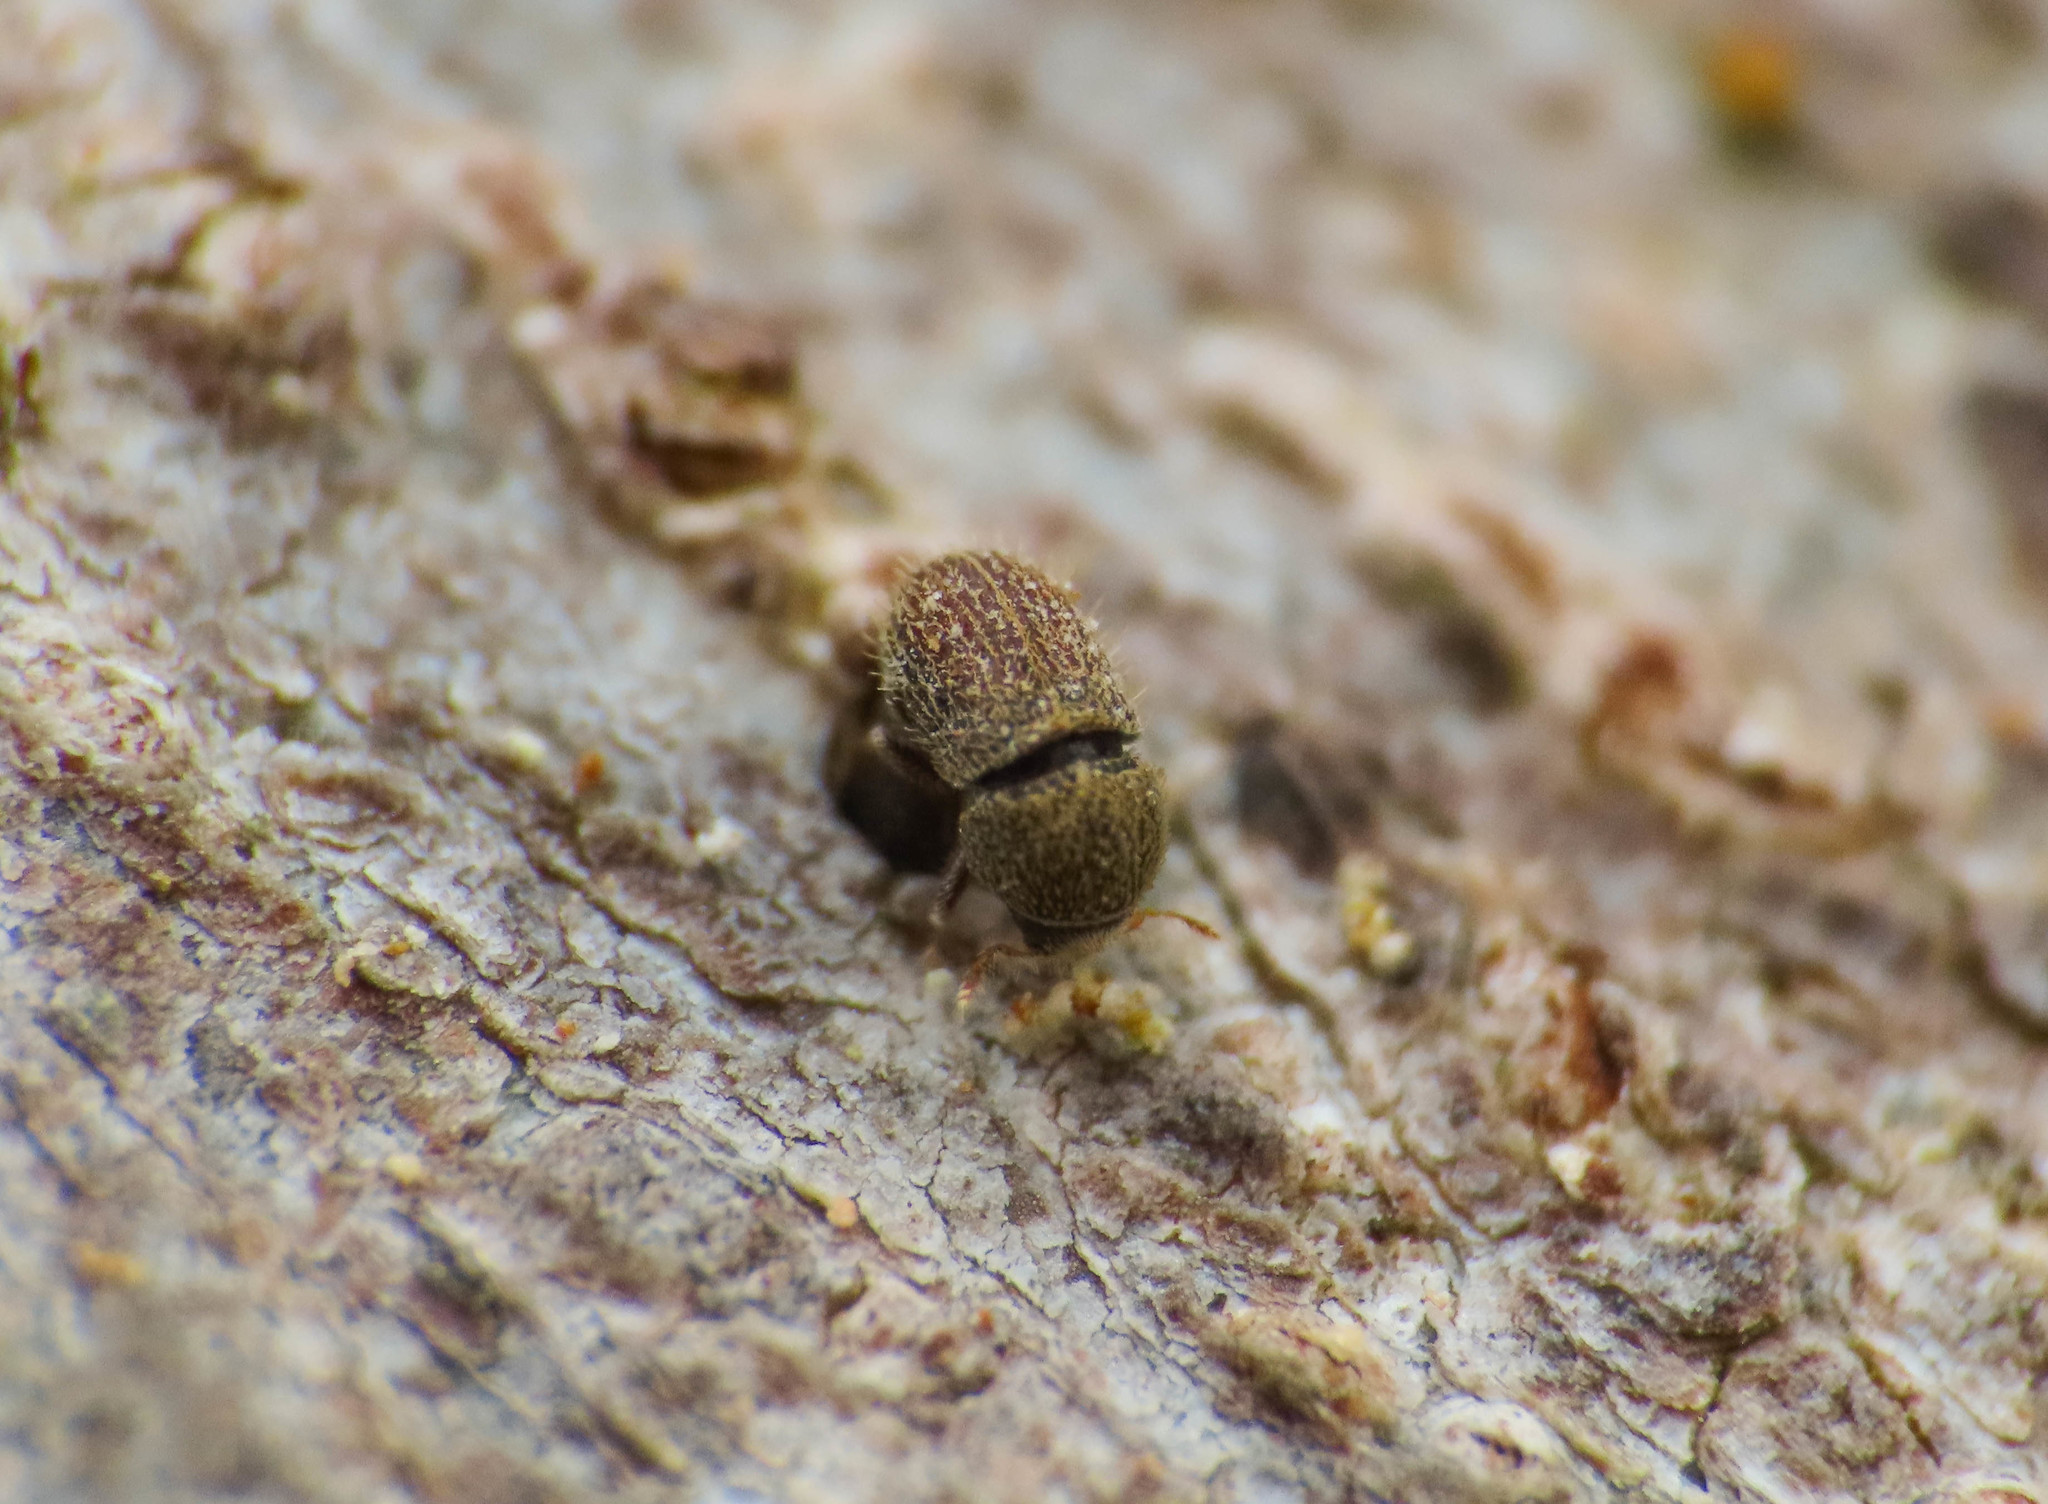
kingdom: Animalia
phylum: Arthropoda
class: Insecta
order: Coleoptera
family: Curculionidae
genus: Hypoborus
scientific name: Hypoborus ficus
